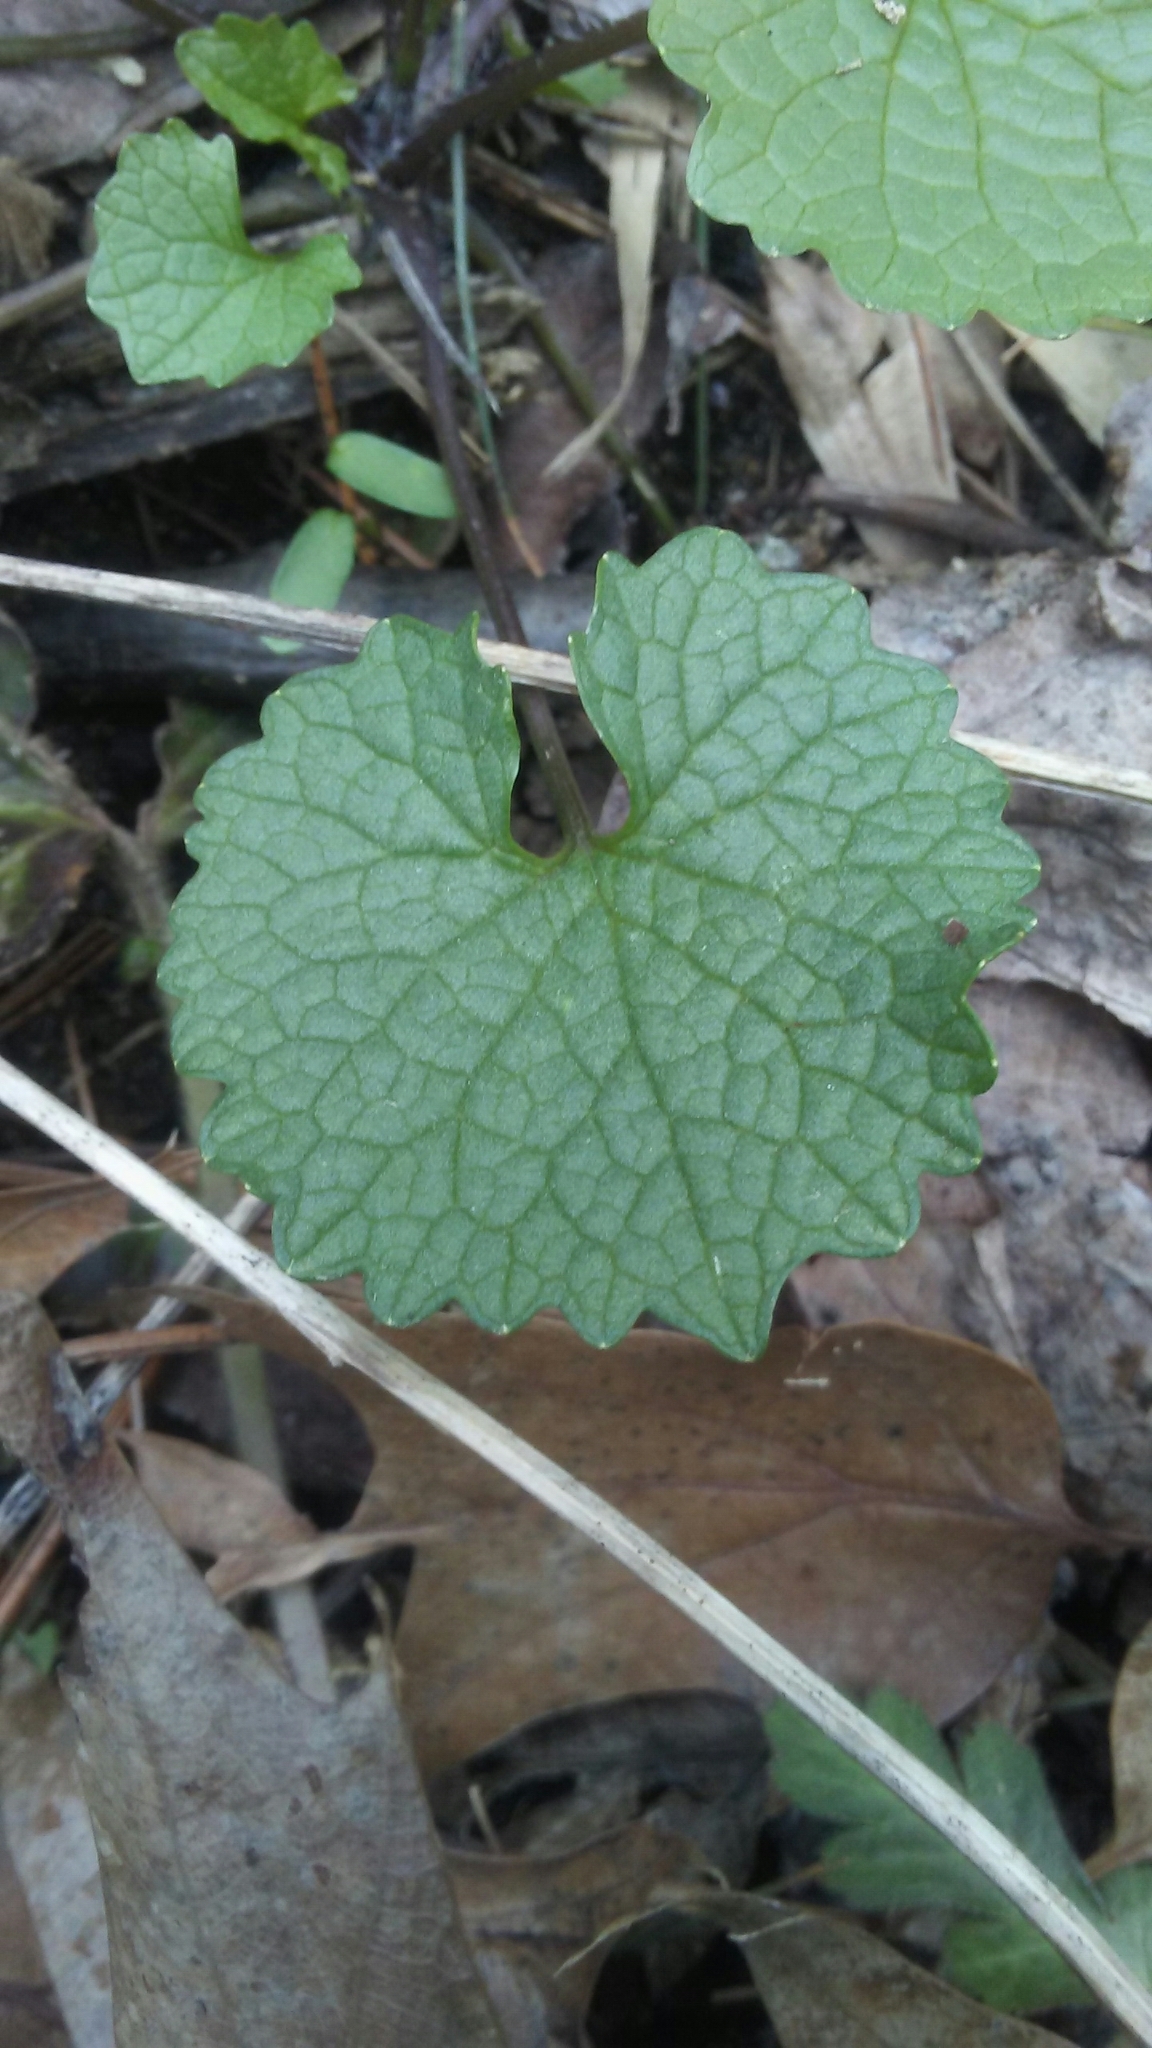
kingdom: Plantae
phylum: Tracheophyta
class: Magnoliopsida
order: Brassicales
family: Brassicaceae
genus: Alliaria
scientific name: Alliaria petiolata
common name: Garlic mustard
